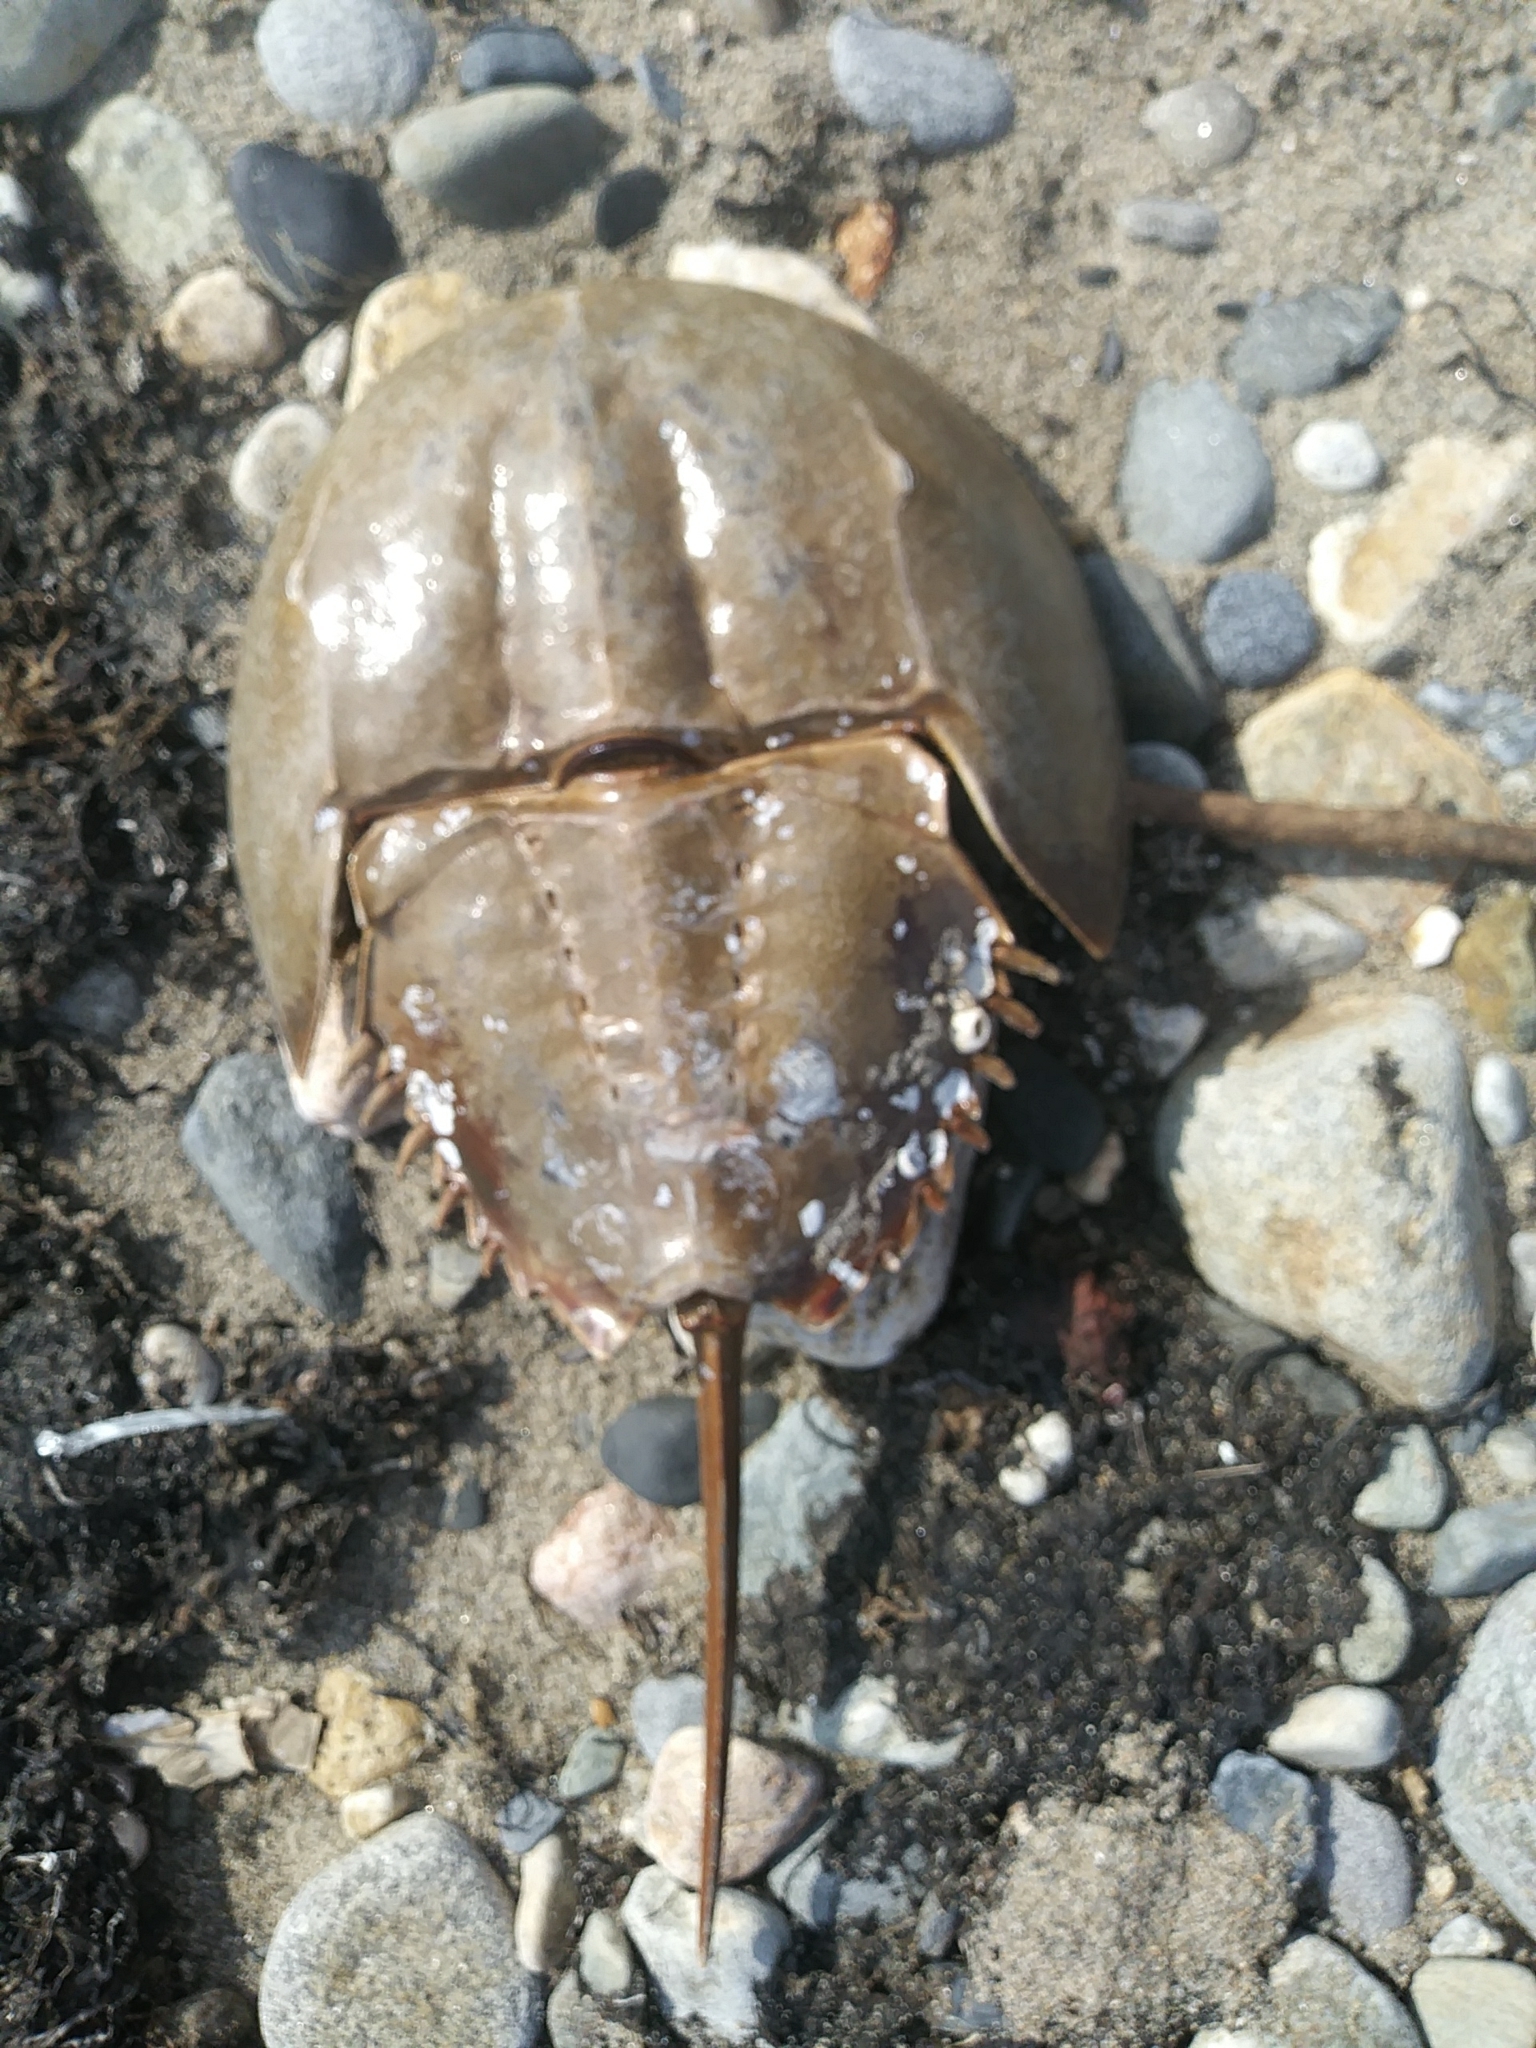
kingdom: Animalia
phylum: Arthropoda
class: Merostomata
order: Xiphosurida
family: Limulidae
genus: Limulus
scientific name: Limulus polyphemus
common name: Horseshoe crab
